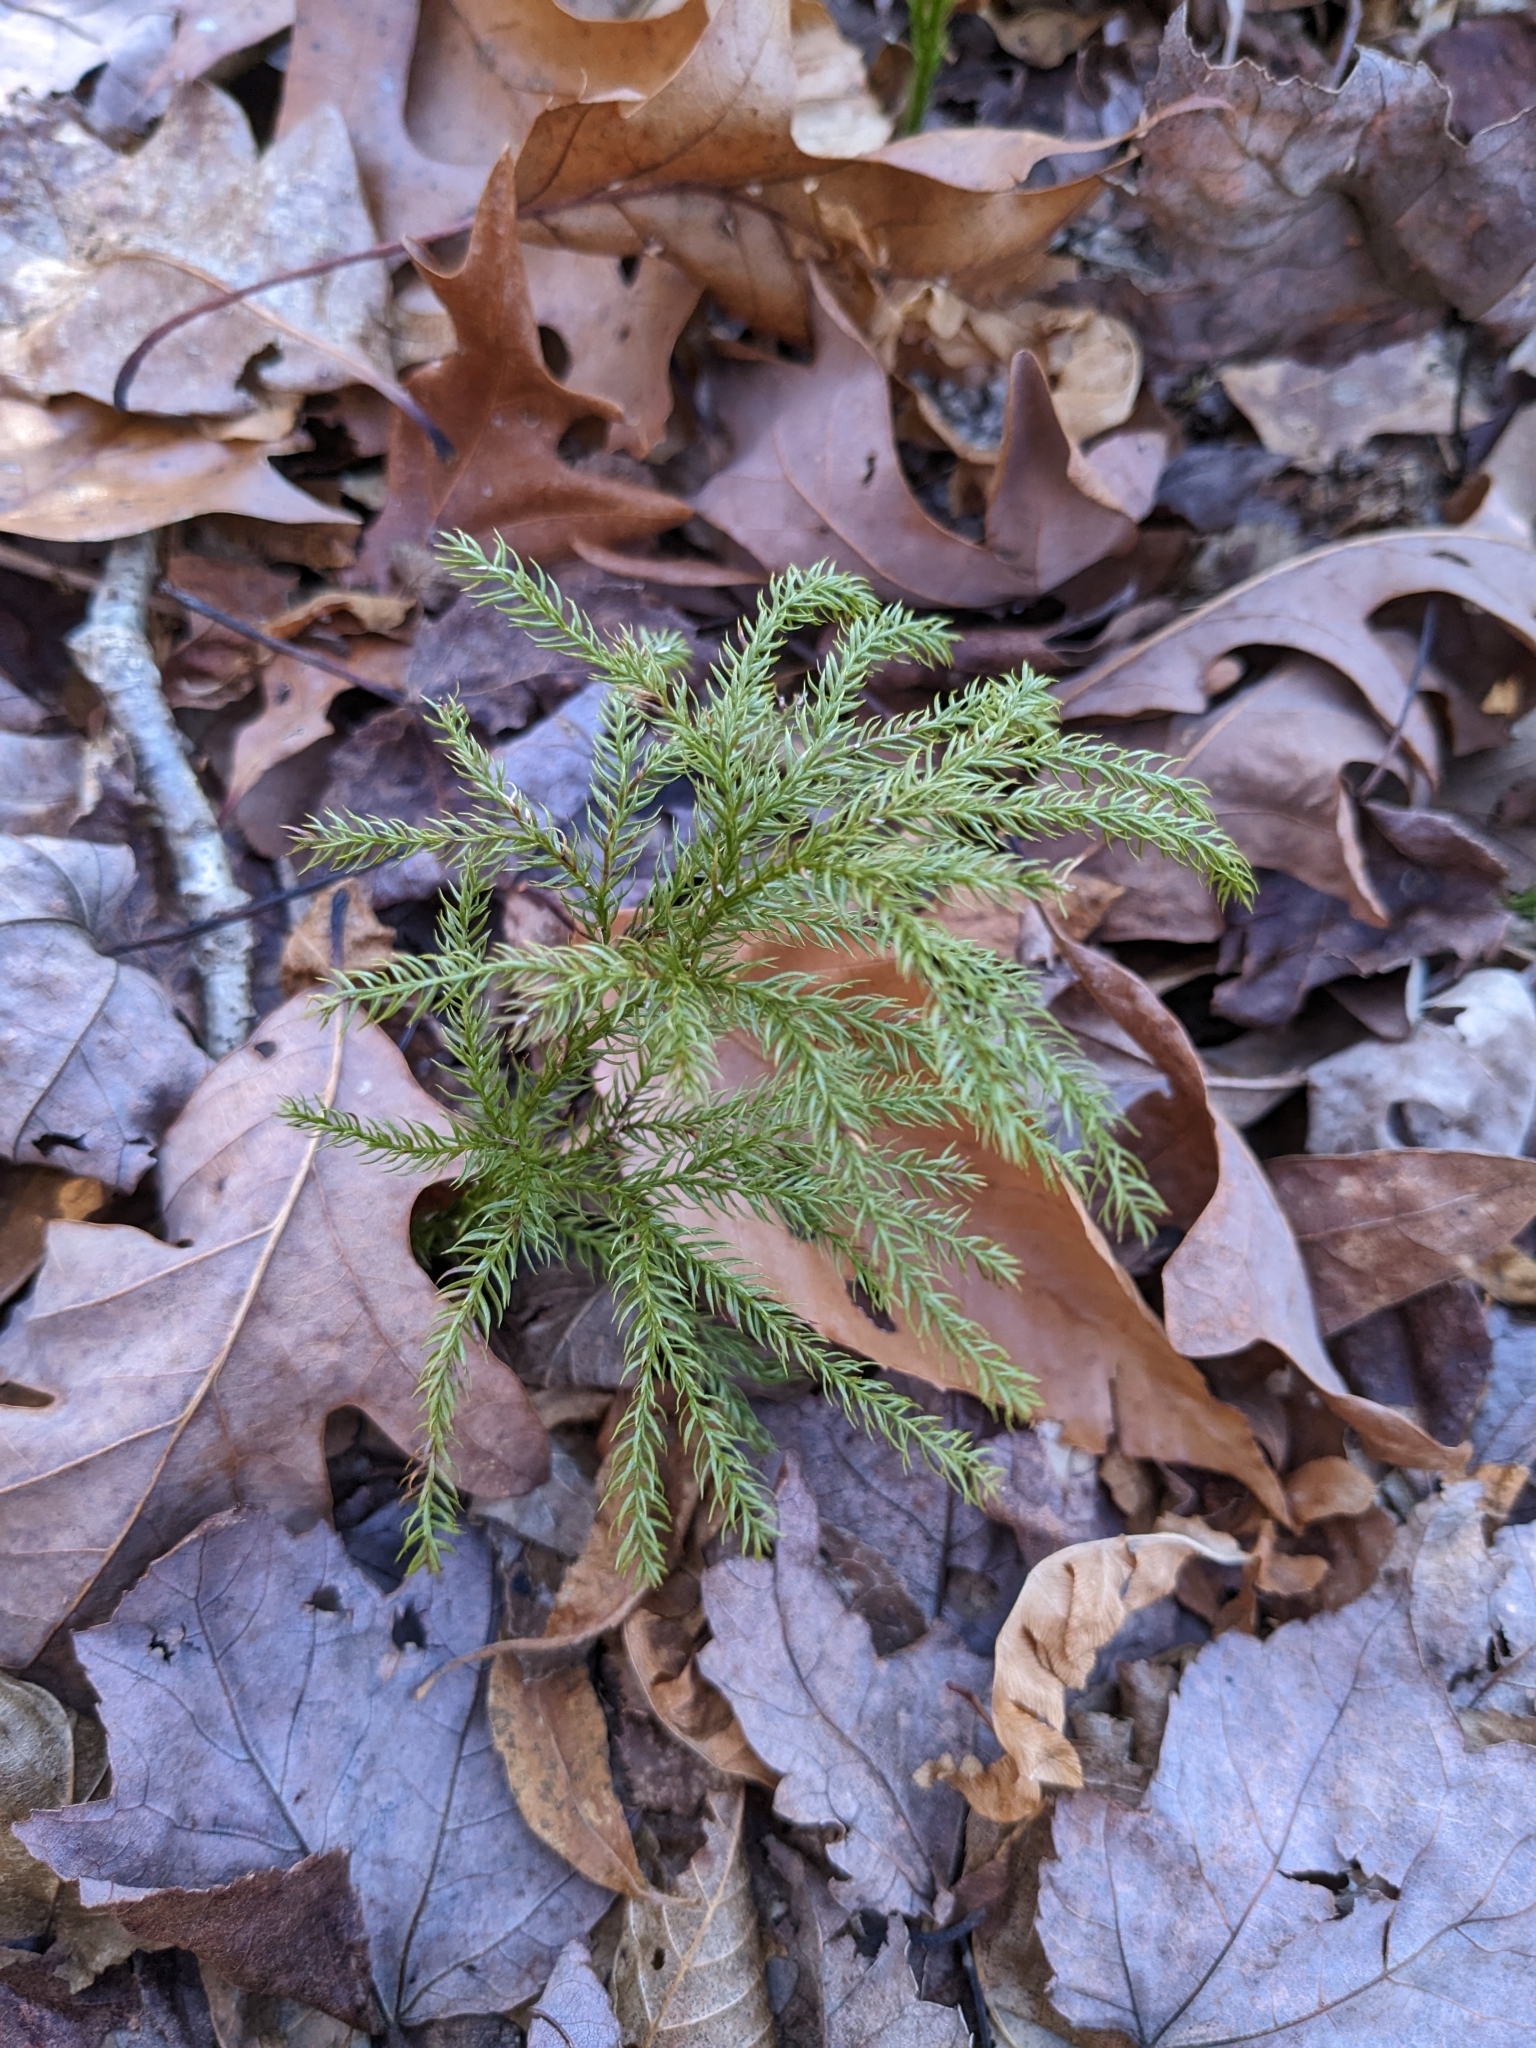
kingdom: Plantae
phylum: Tracheophyta
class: Lycopodiopsida
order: Lycopodiales
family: Lycopodiaceae
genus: Dendrolycopodium
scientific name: Dendrolycopodium obscurum
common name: Common ground-pine
